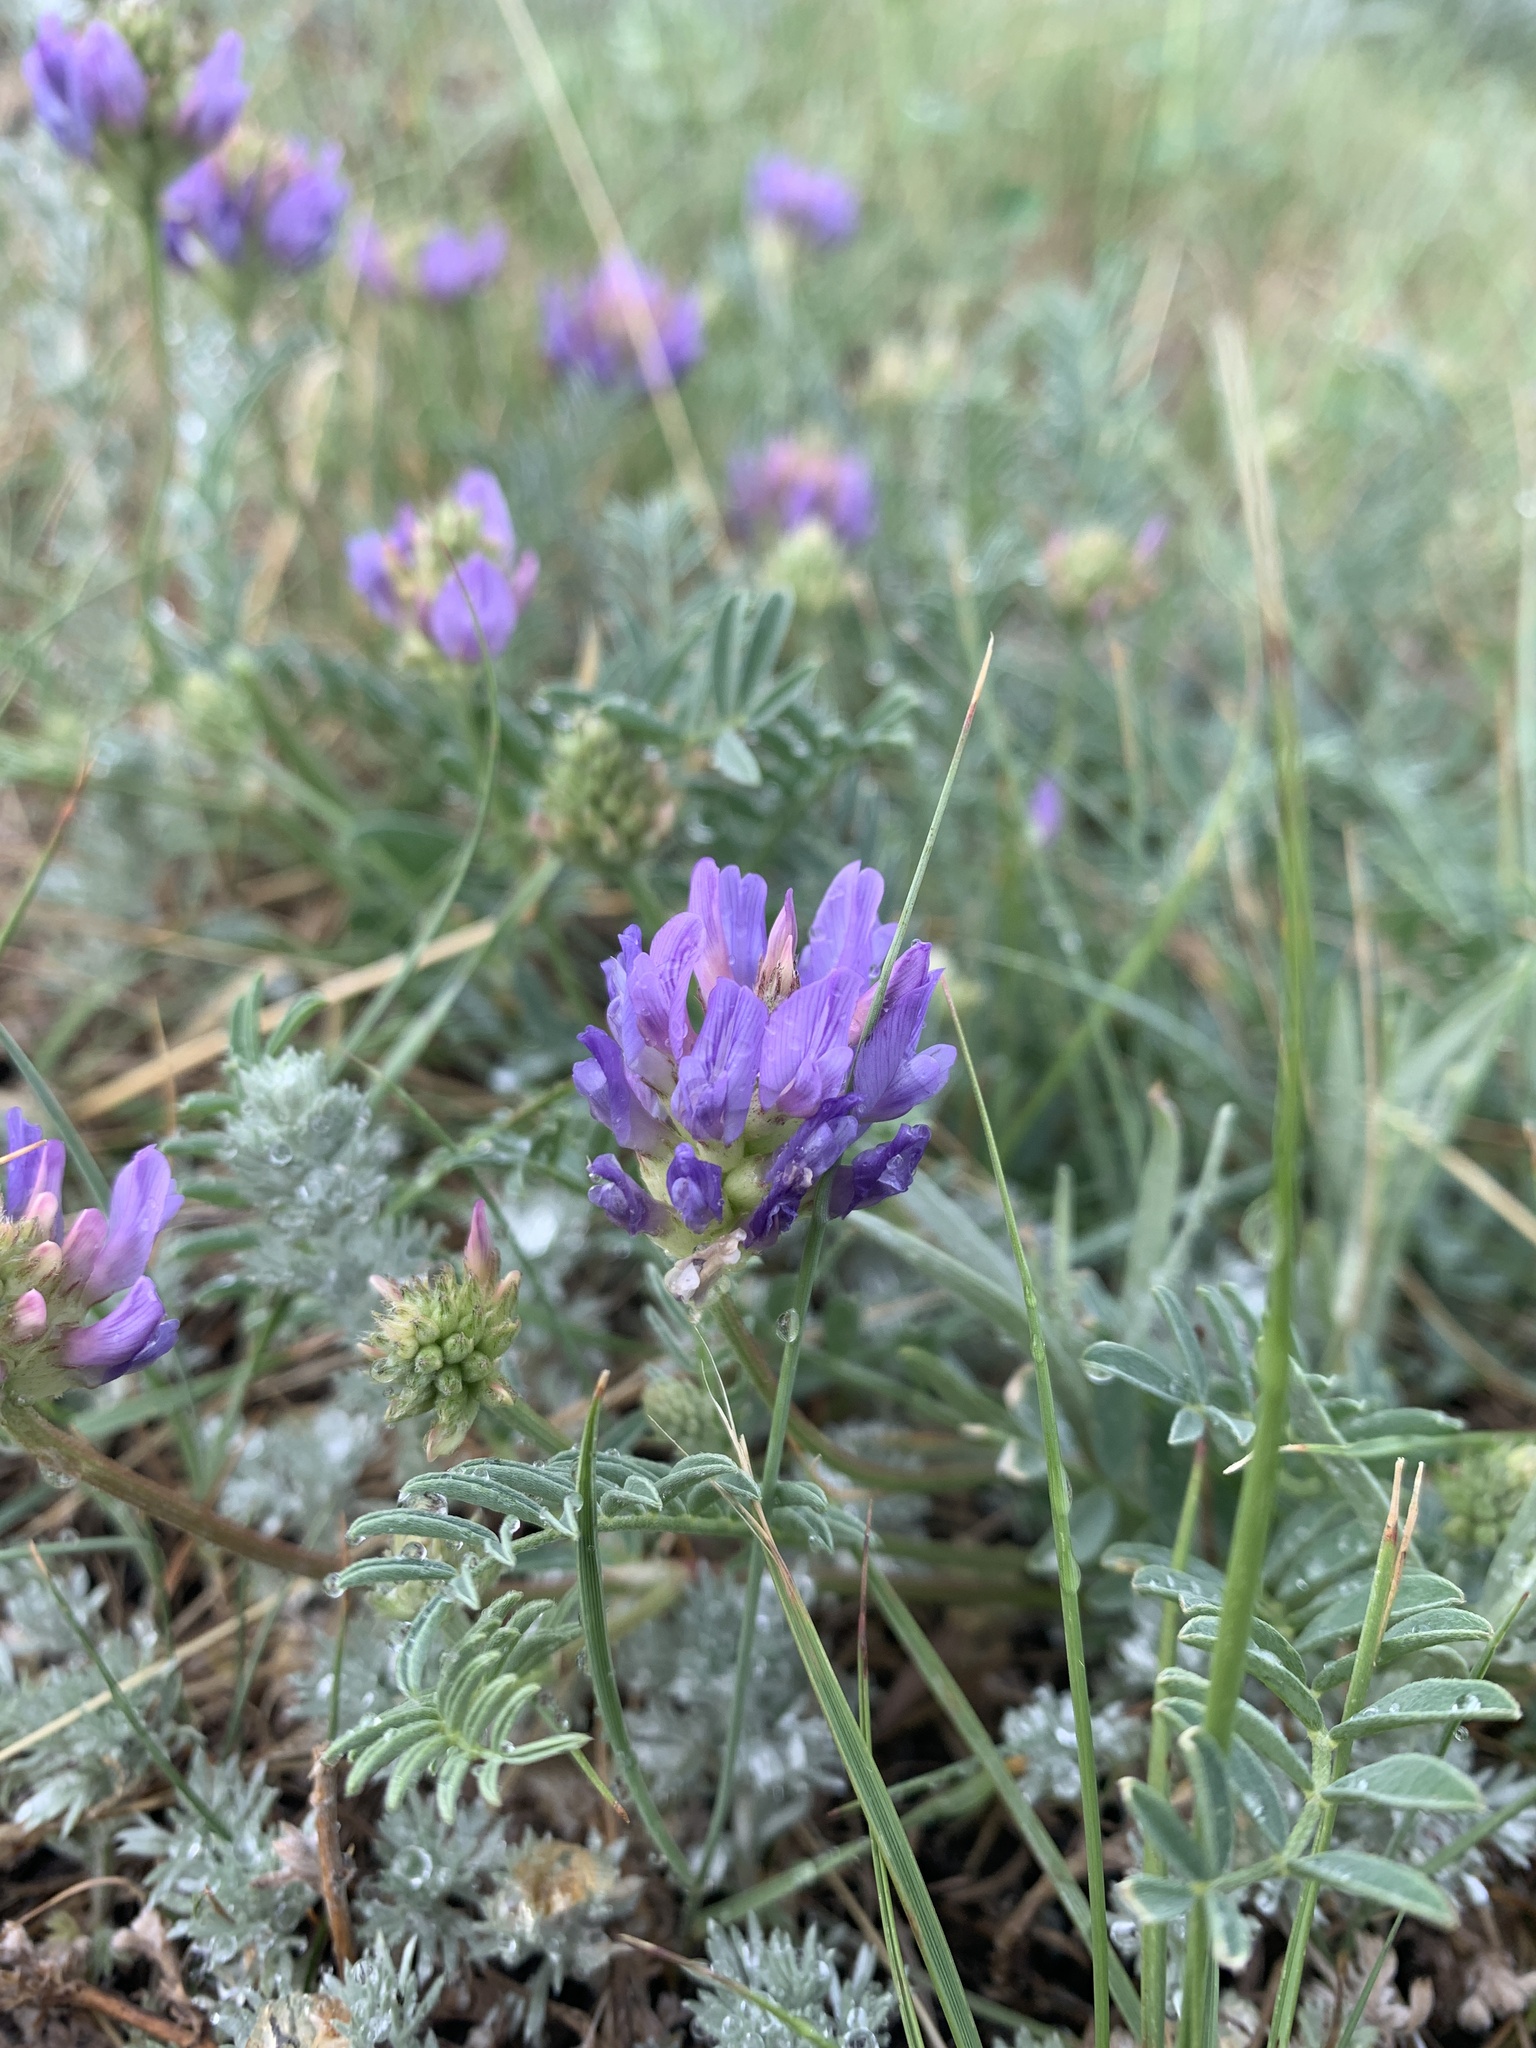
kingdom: Plantae
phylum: Tracheophyta
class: Magnoliopsida
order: Fabales
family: Fabaceae
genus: Astragalus
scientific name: Astragalus laxmannii
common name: Laxmann's milk-vetch
